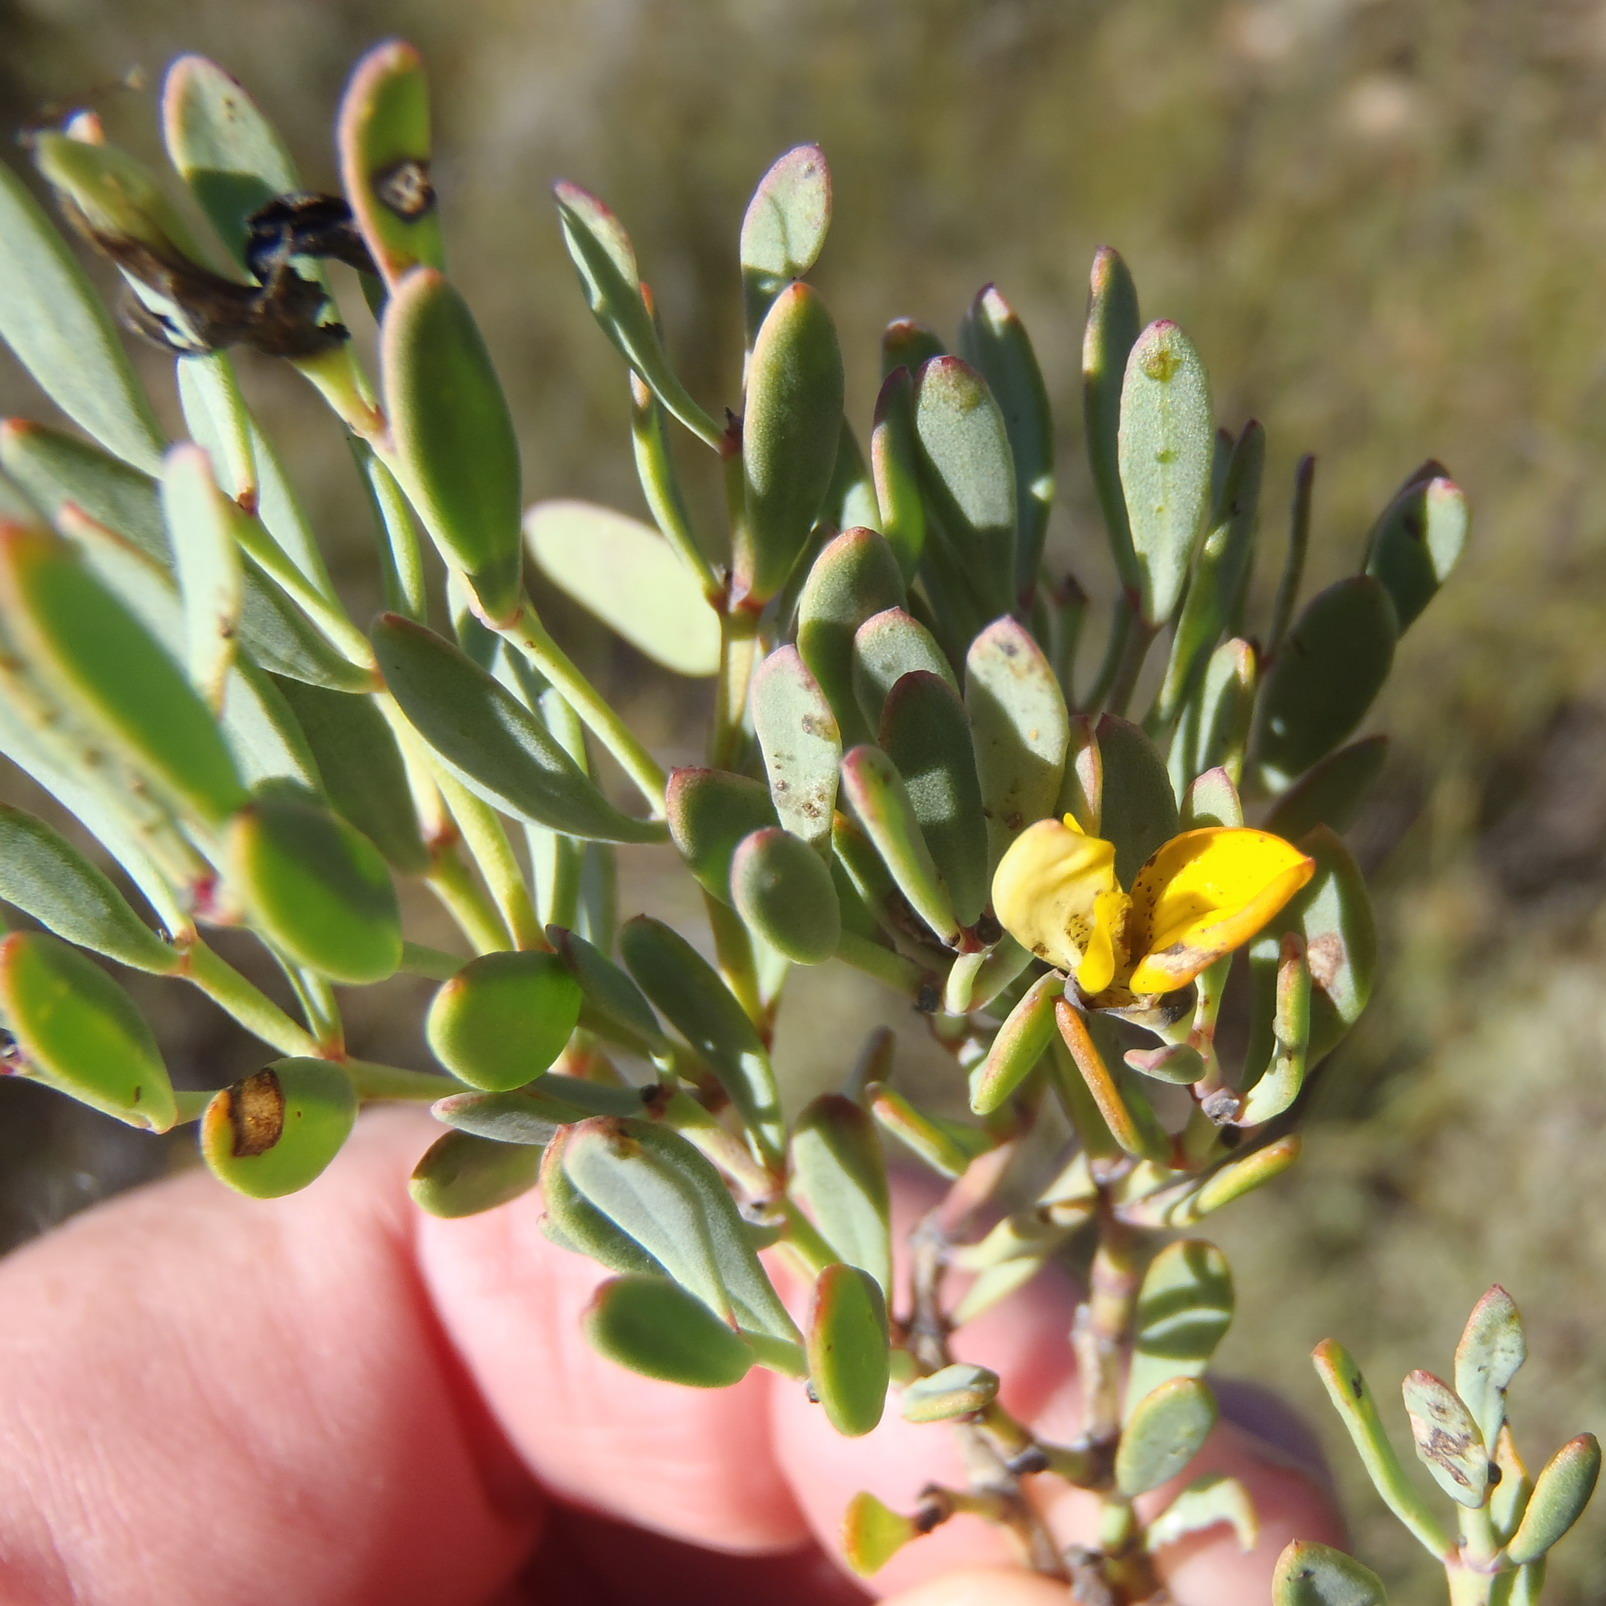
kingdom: Plantae
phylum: Tracheophyta
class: Magnoliopsida
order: Fabales
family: Fabaceae
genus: Rafnia
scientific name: Rafnia capensis
